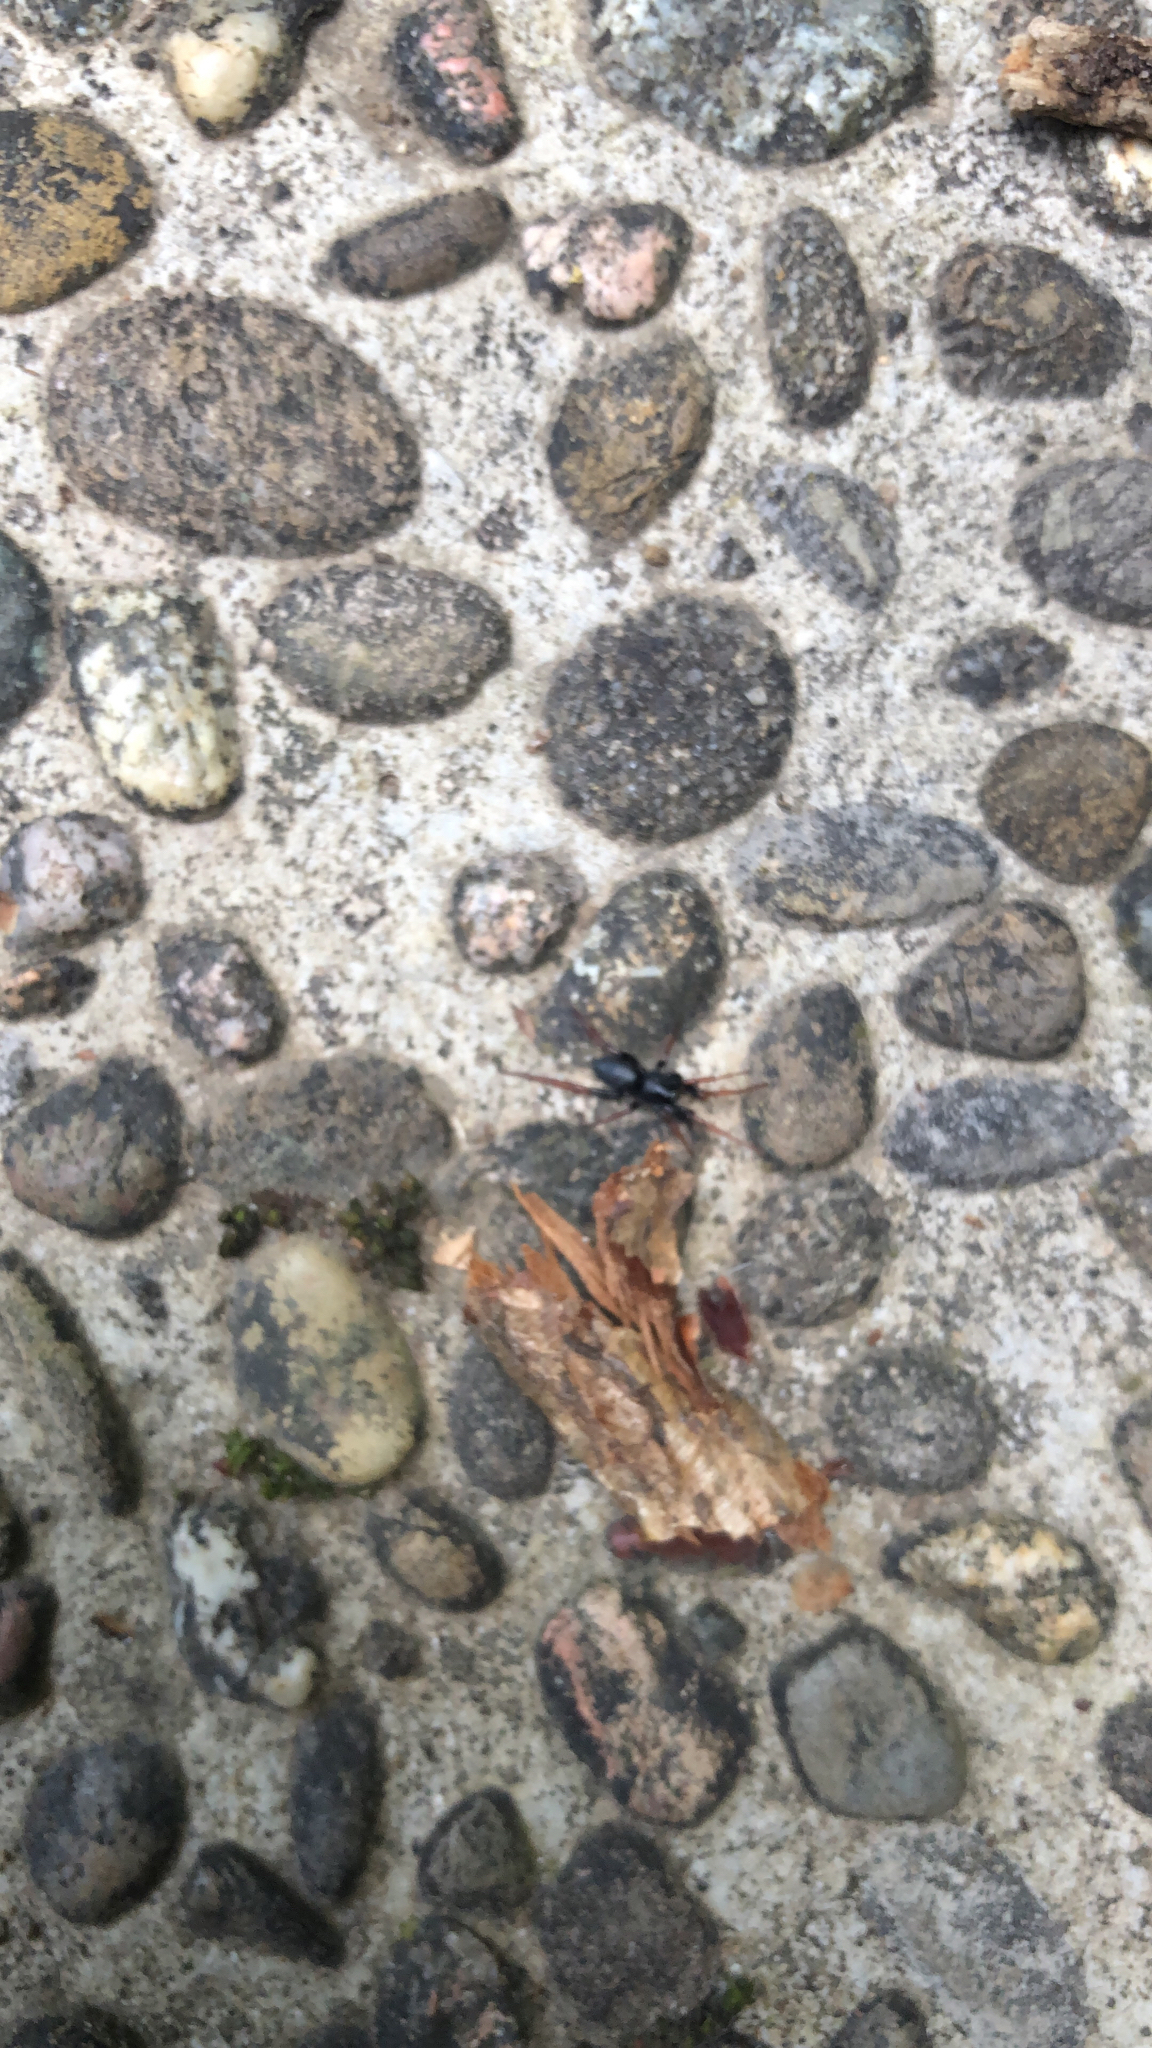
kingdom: Animalia
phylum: Arthropoda
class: Arachnida
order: Araneae
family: Gnaphosidae
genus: Trachyzelotes
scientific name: Trachyzelotes pedestris
